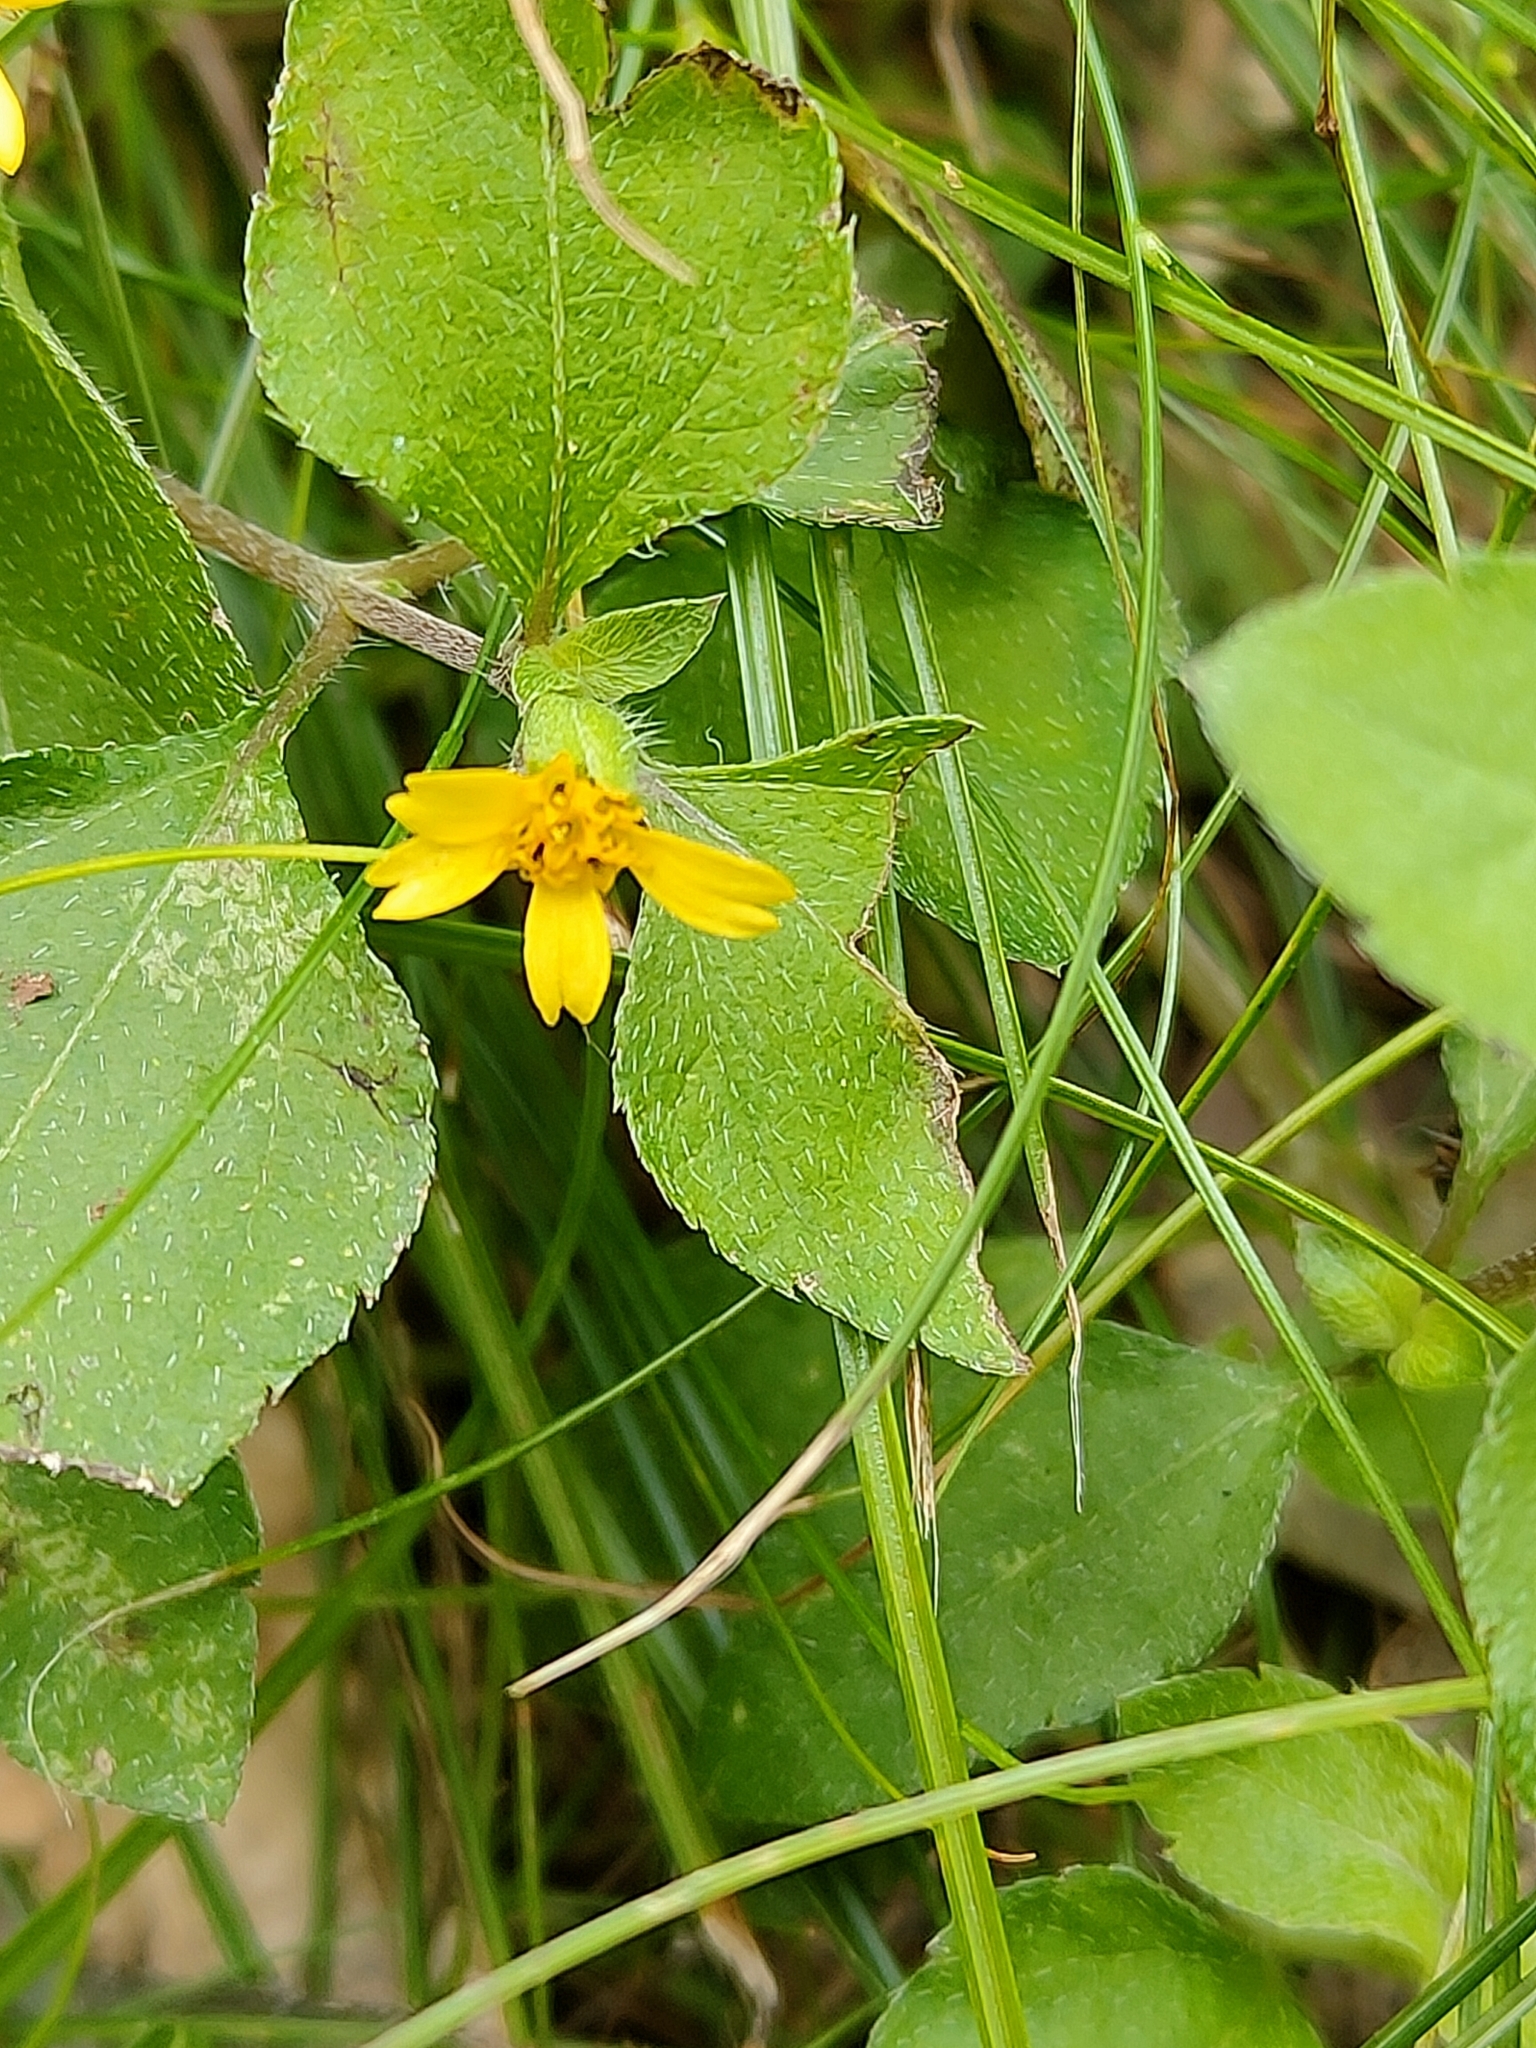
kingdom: Plantae
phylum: Tracheophyta
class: Magnoliopsida
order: Asterales
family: Asteraceae
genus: Calyptocarpus
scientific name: Calyptocarpus vialis
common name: Straggler daisy
